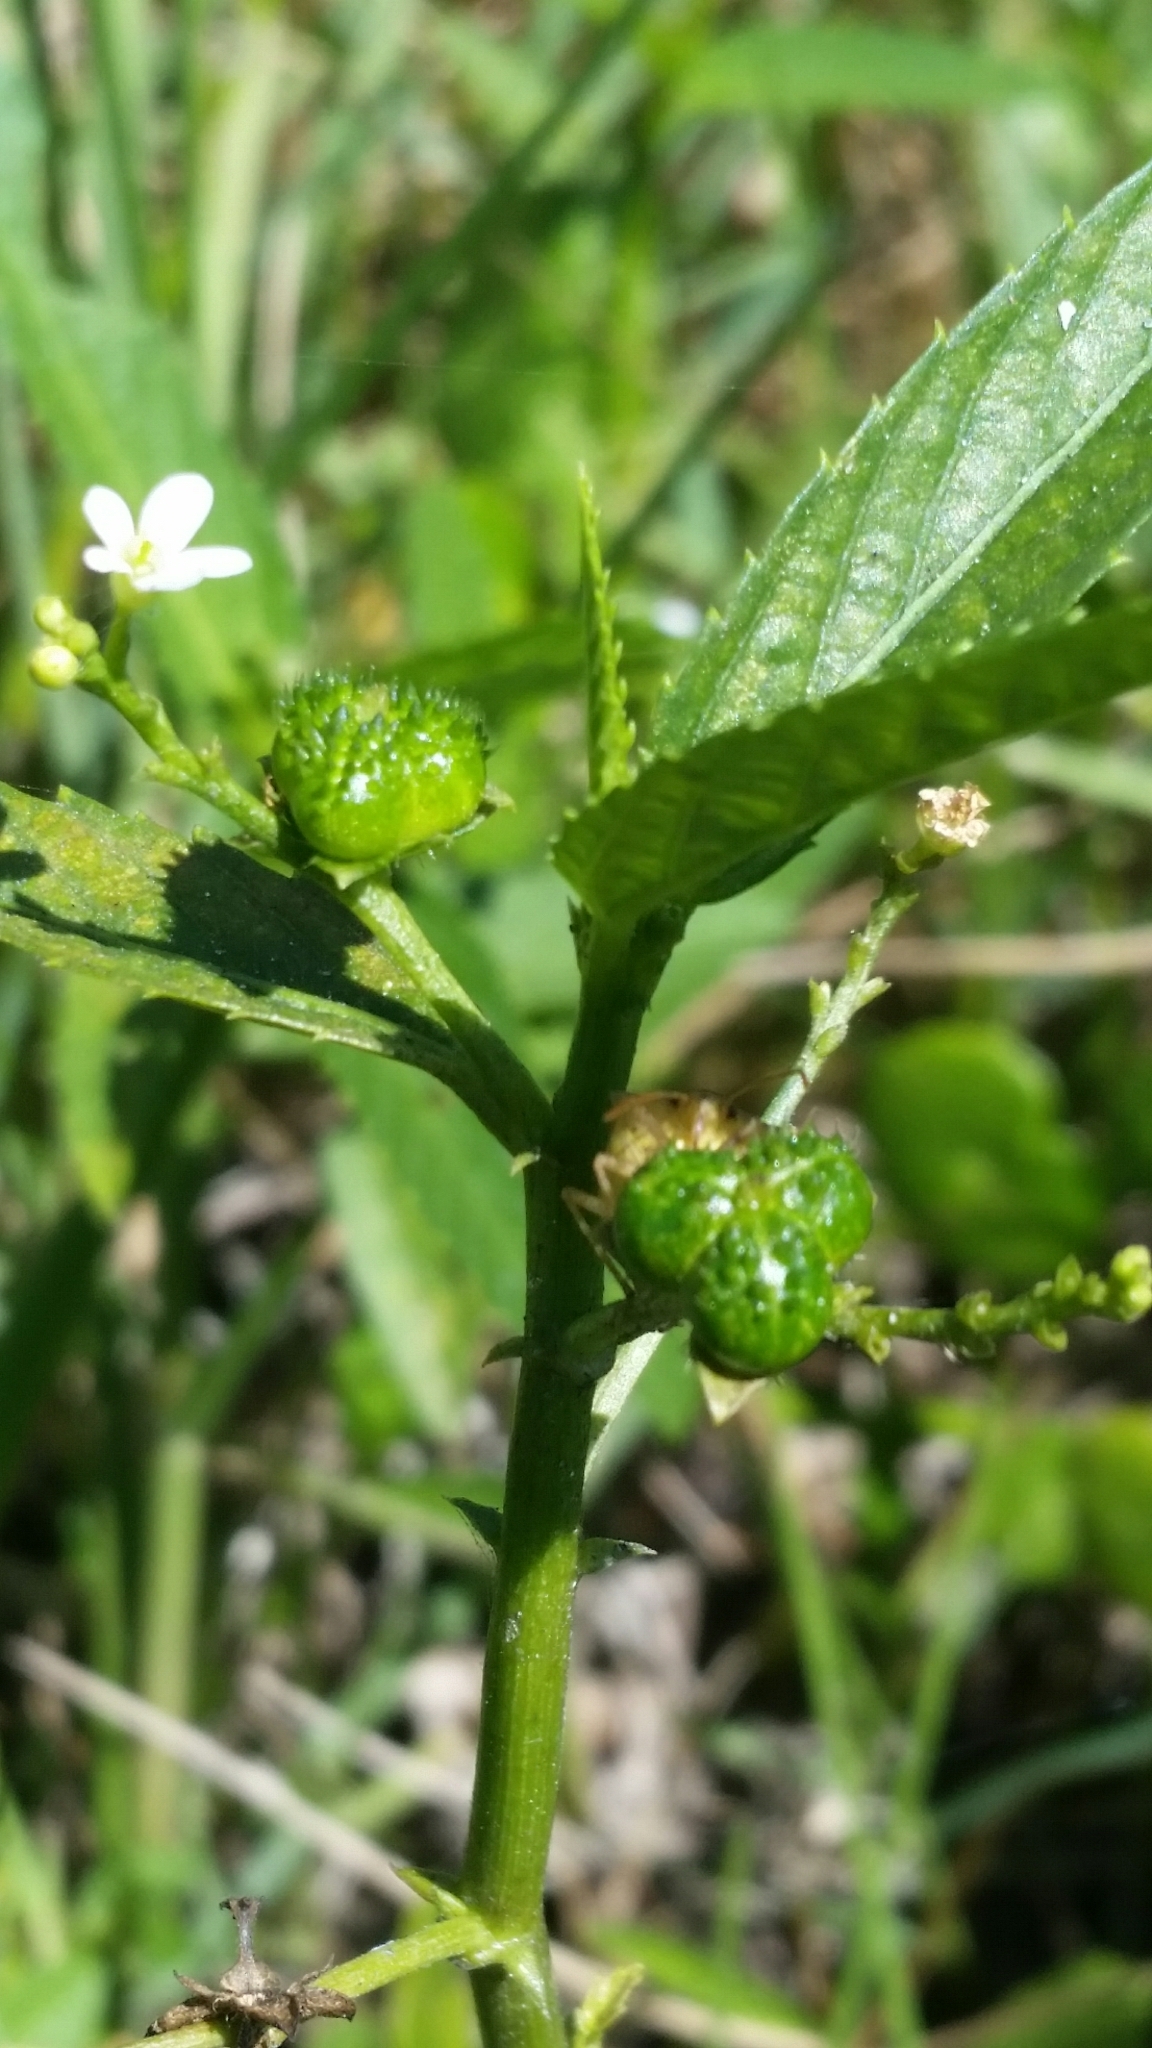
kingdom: Plantae
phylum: Tracheophyta
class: Magnoliopsida
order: Malpighiales
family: Euphorbiaceae
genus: Caperonia
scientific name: Caperonia castaneifolia
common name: Chestnutleaf false croton
